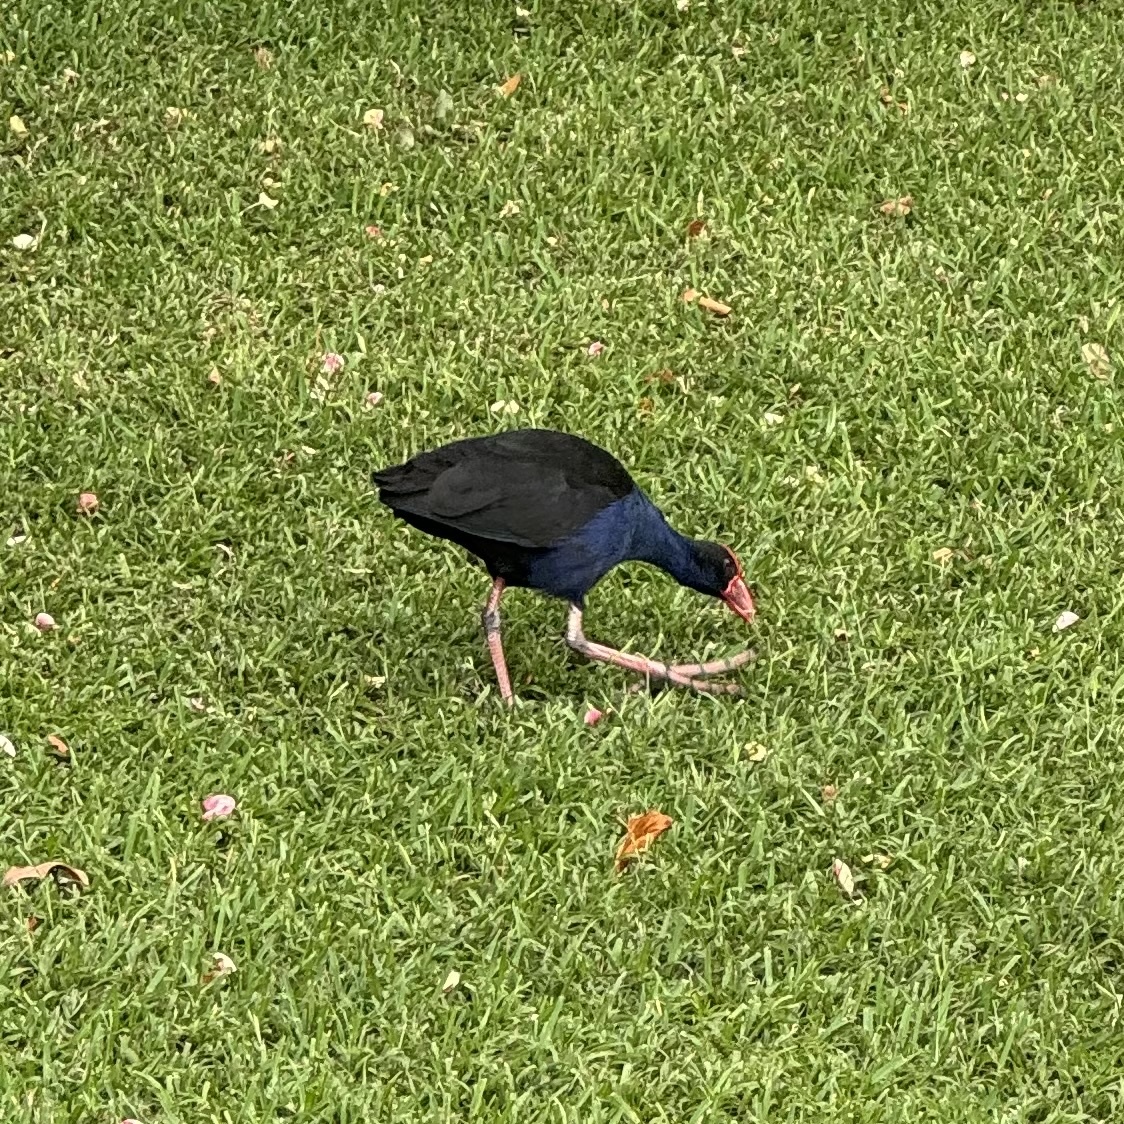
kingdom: Animalia
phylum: Chordata
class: Aves
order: Gruiformes
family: Rallidae
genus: Porphyrio
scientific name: Porphyrio melanotus
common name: Australasian swamphen
